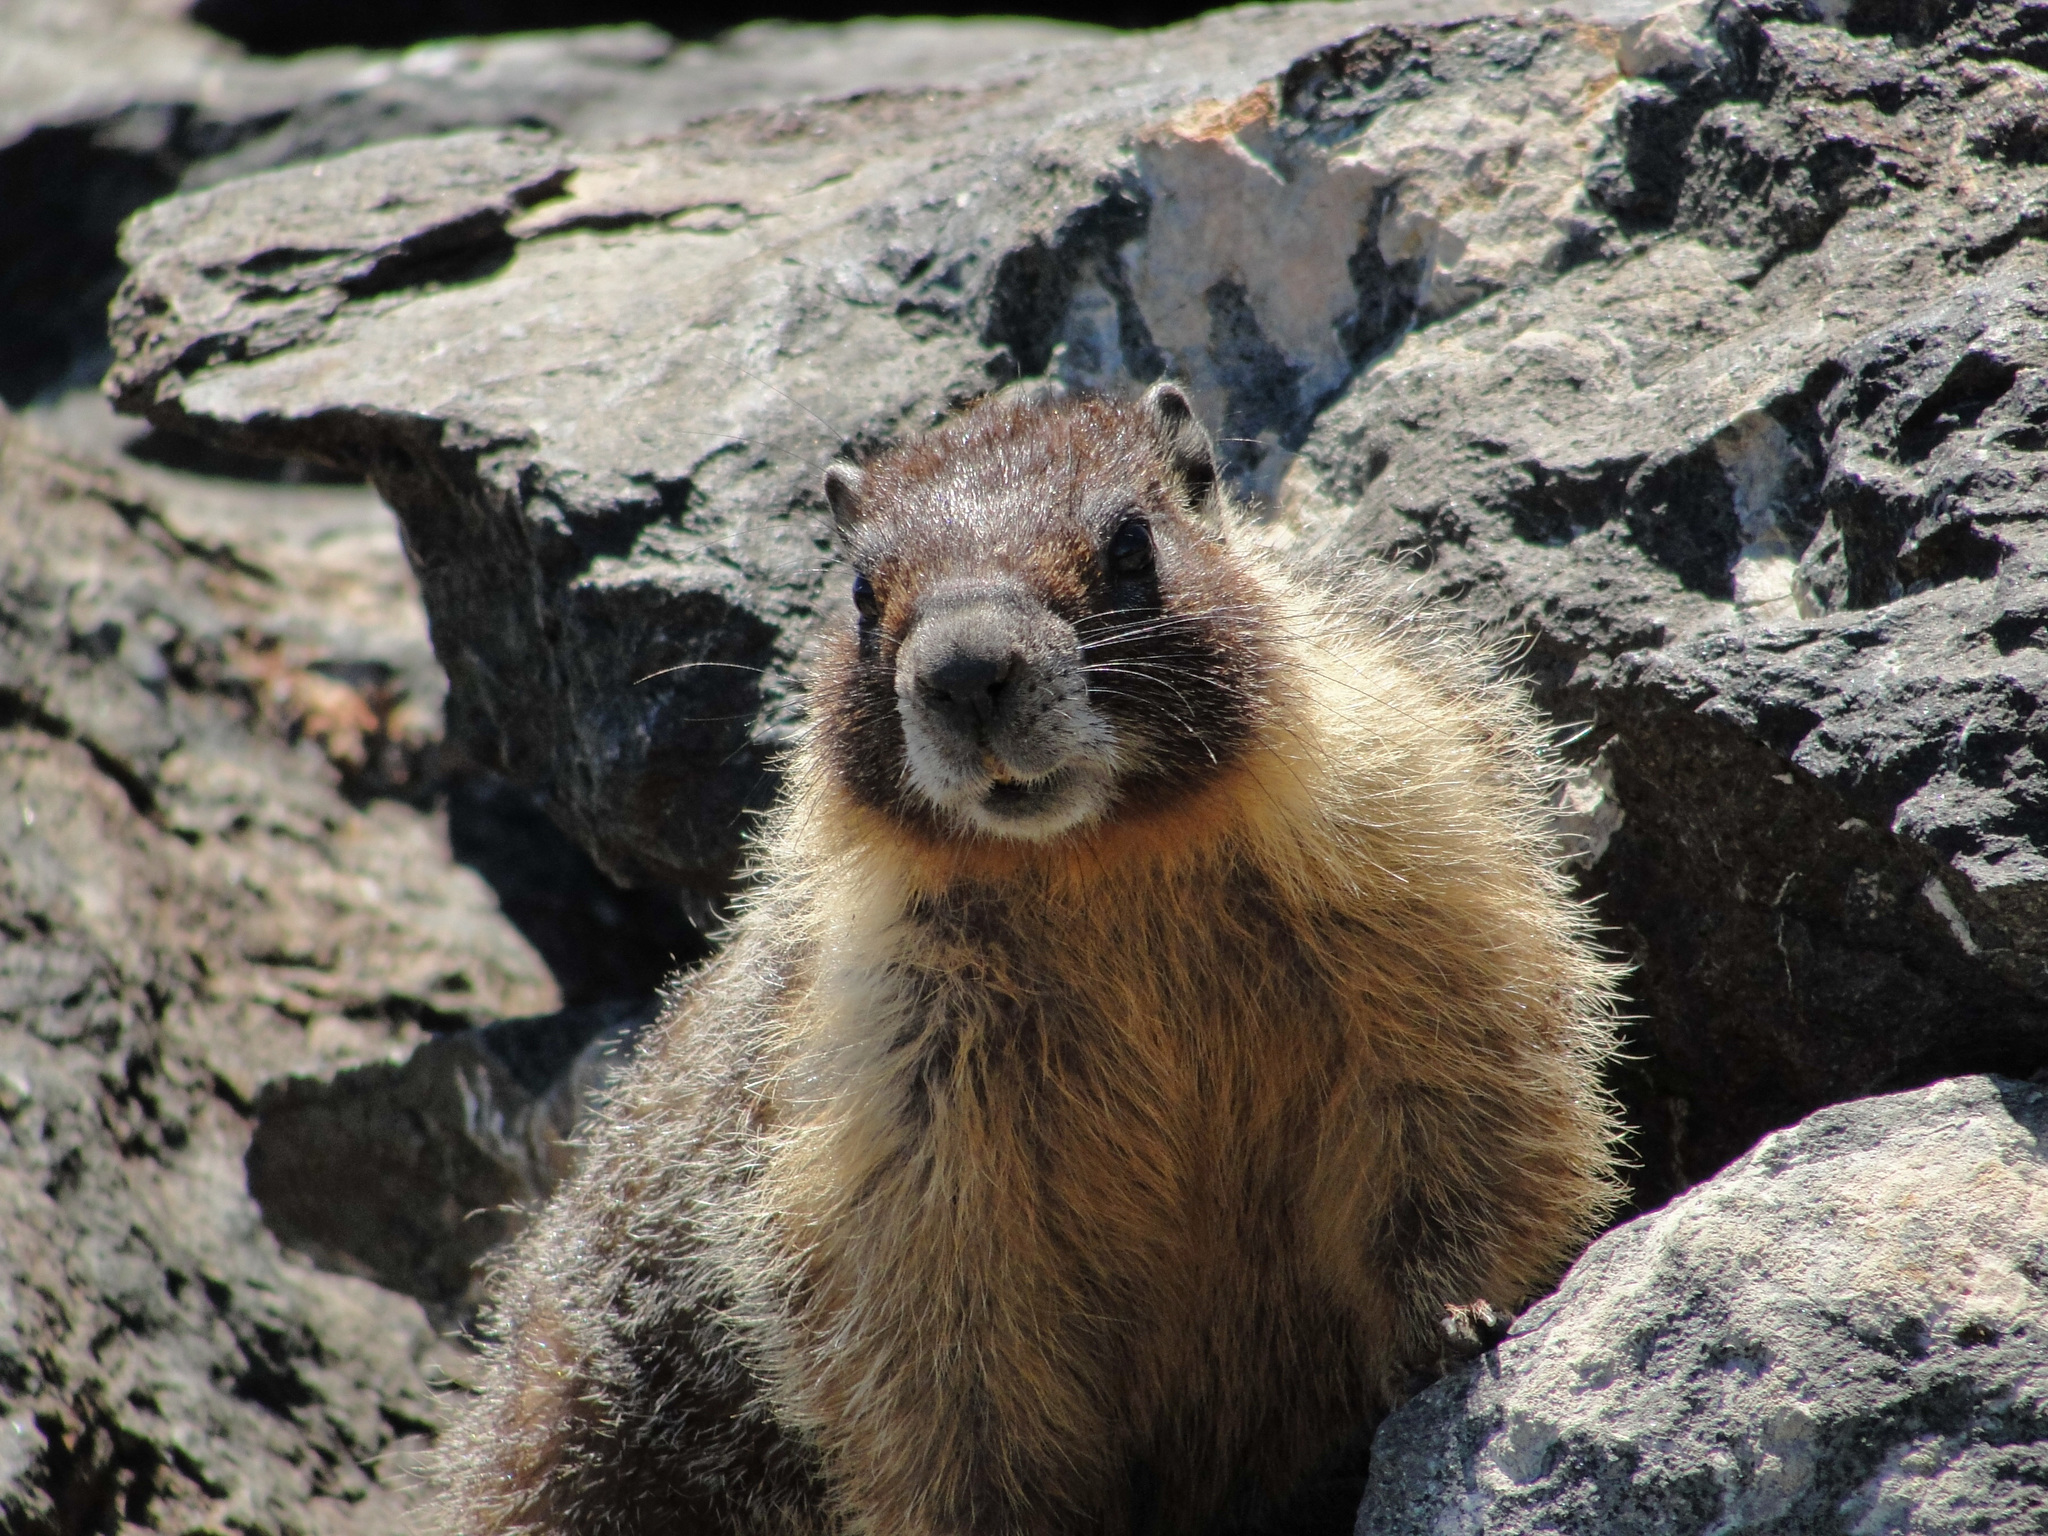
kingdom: Animalia
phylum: Chordata
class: Mammalia
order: Rodentia
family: Sciuridae
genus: Marmota
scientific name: Marmota flaviventris
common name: Yellow-bellied marmot
